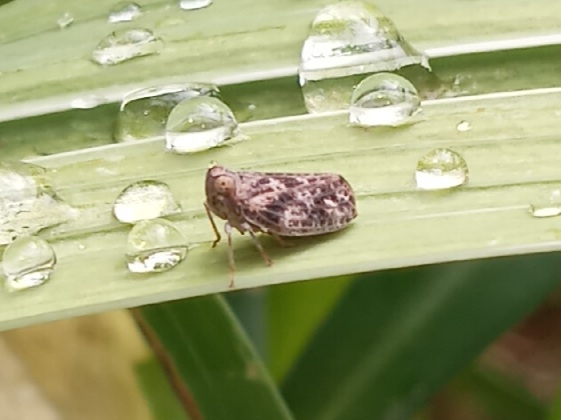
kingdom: Animalia
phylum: Arthropoda
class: Insecta
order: Hemiptera
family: Issidae
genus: Thionia
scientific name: Thionia bullata
